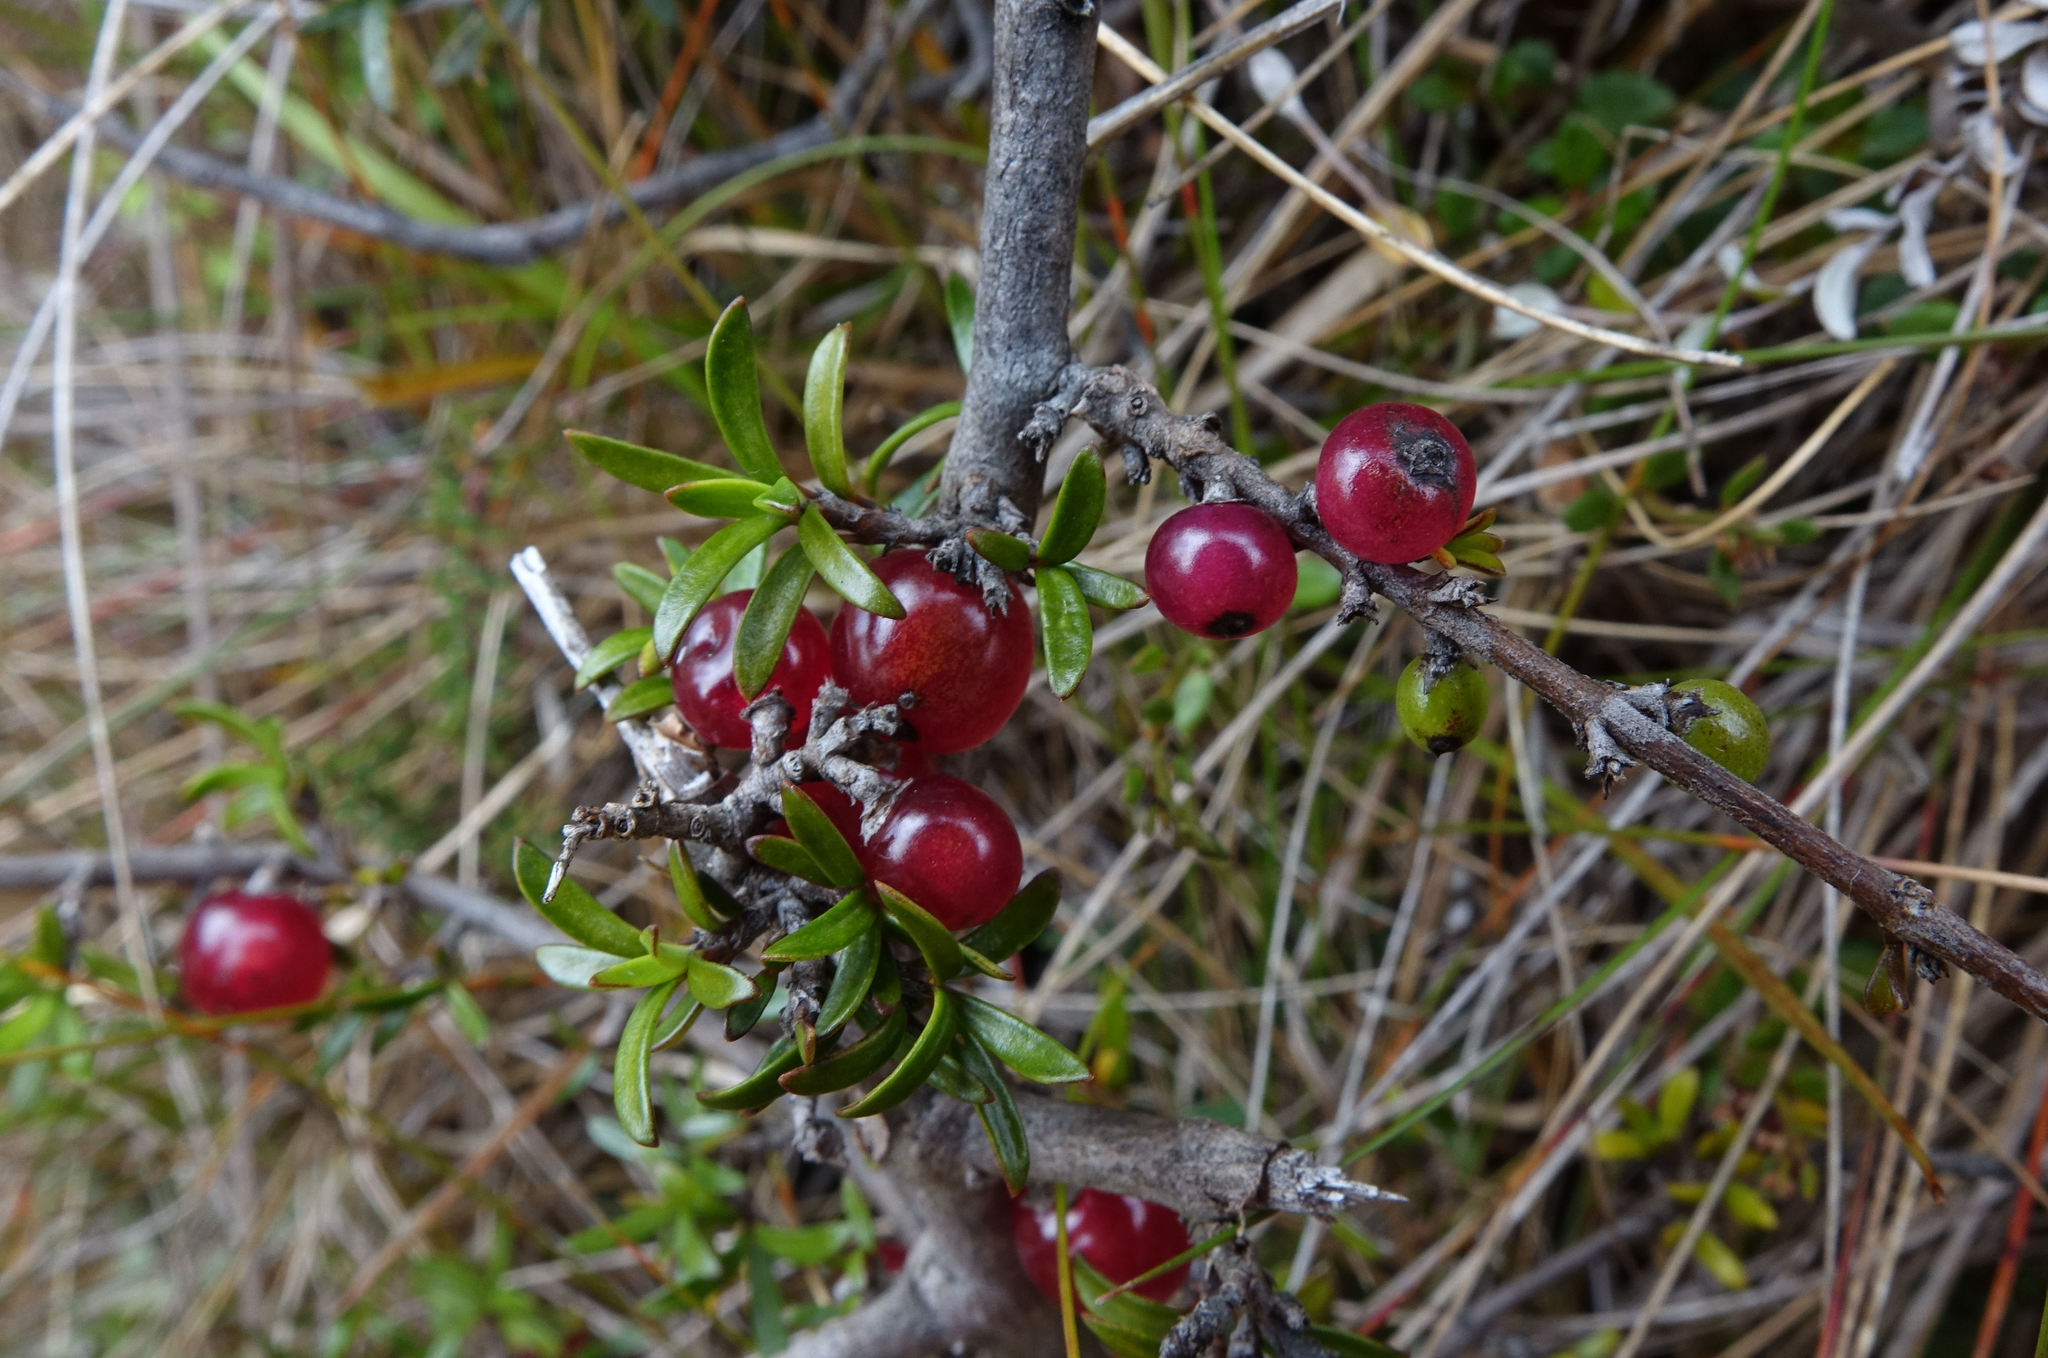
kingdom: Plantae
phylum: Tracheophyta
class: Magnoliopsida
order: Gentianales
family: Rubiaceae
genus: Coprosma
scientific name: Coprosma cheesemanii
